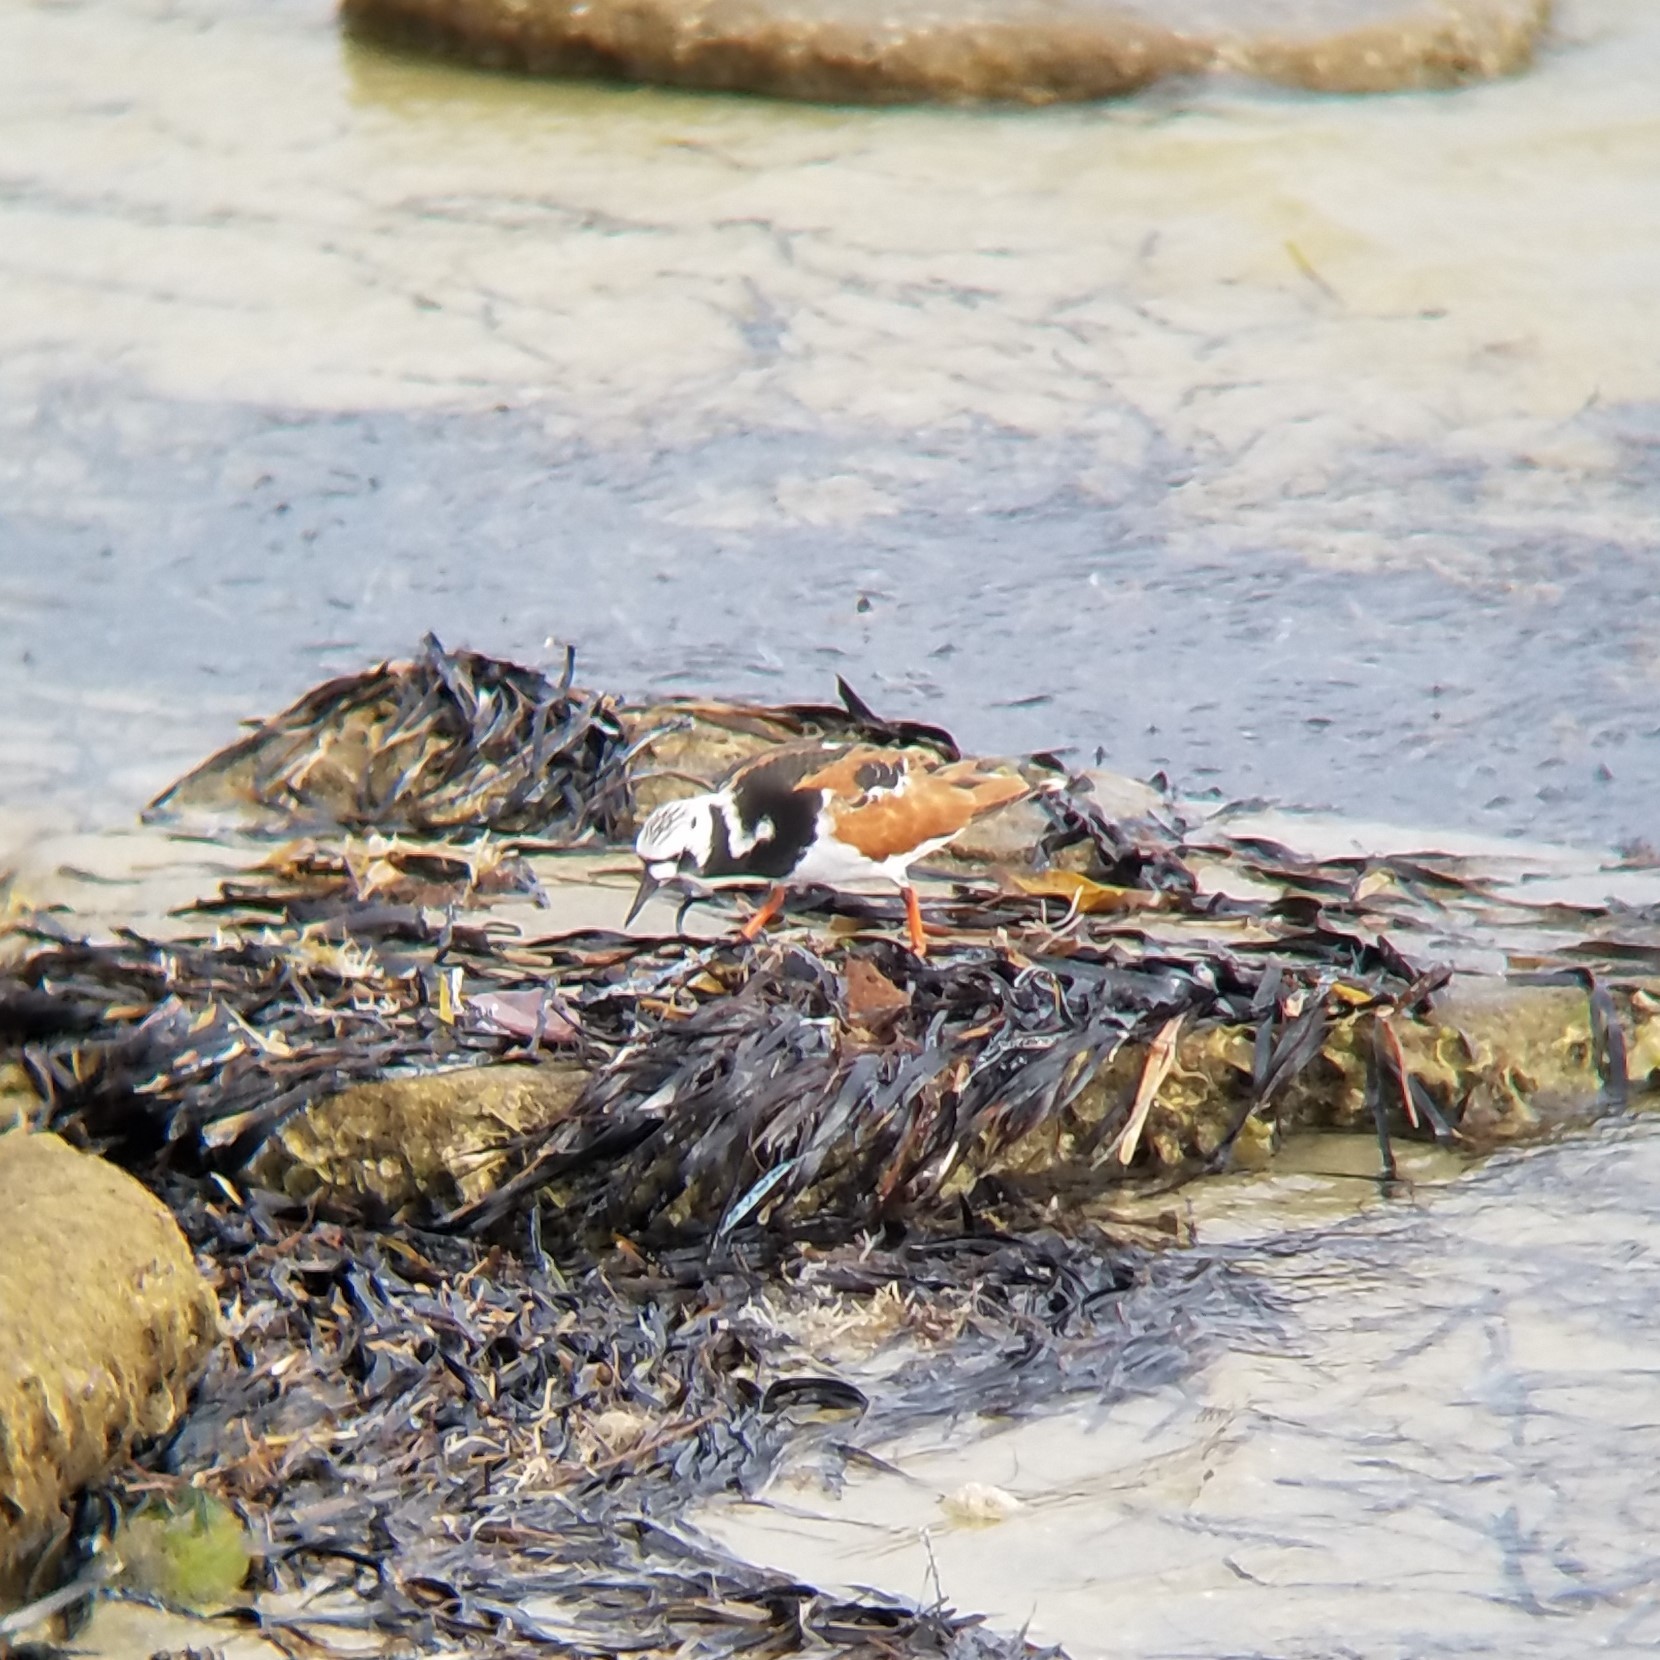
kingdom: Animalia
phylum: Chordata
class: Aves
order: Charadriiformes
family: Scolopacidae
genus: Arenaria
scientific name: Arenaria interpres
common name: Ruddy turnstone
